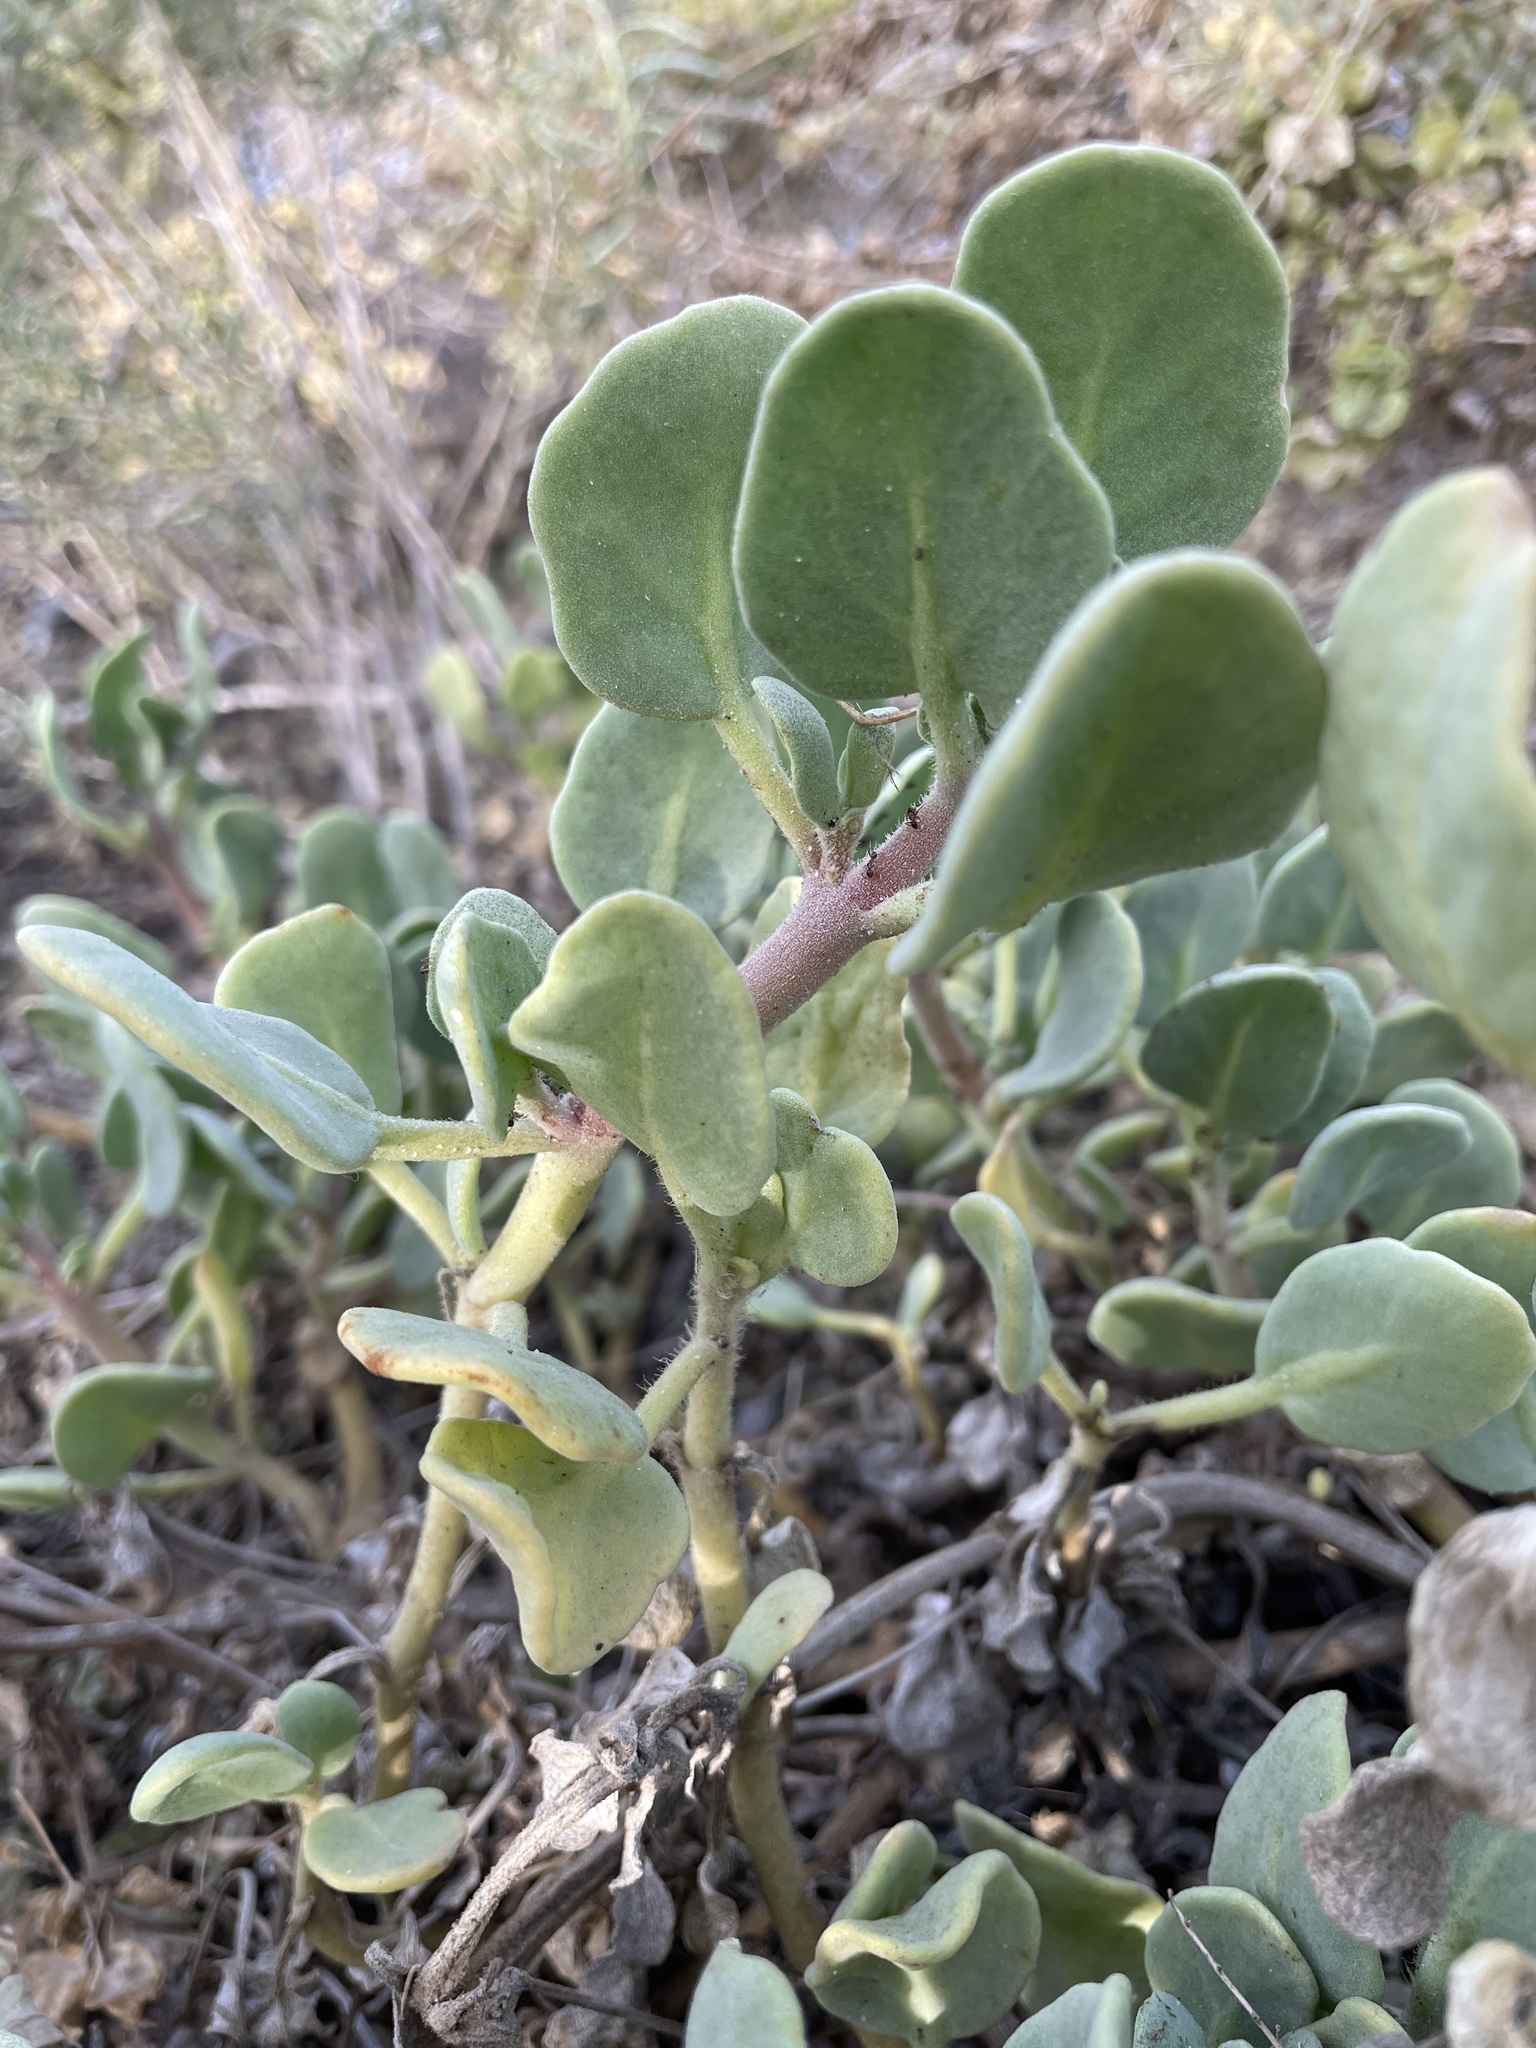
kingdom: Plantae
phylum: Tracheophyta
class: Magnoliopsida
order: Caryophyllales
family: Nyctaginaceae
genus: Abronia
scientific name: Abronia maritima
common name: Red sand-verbena
